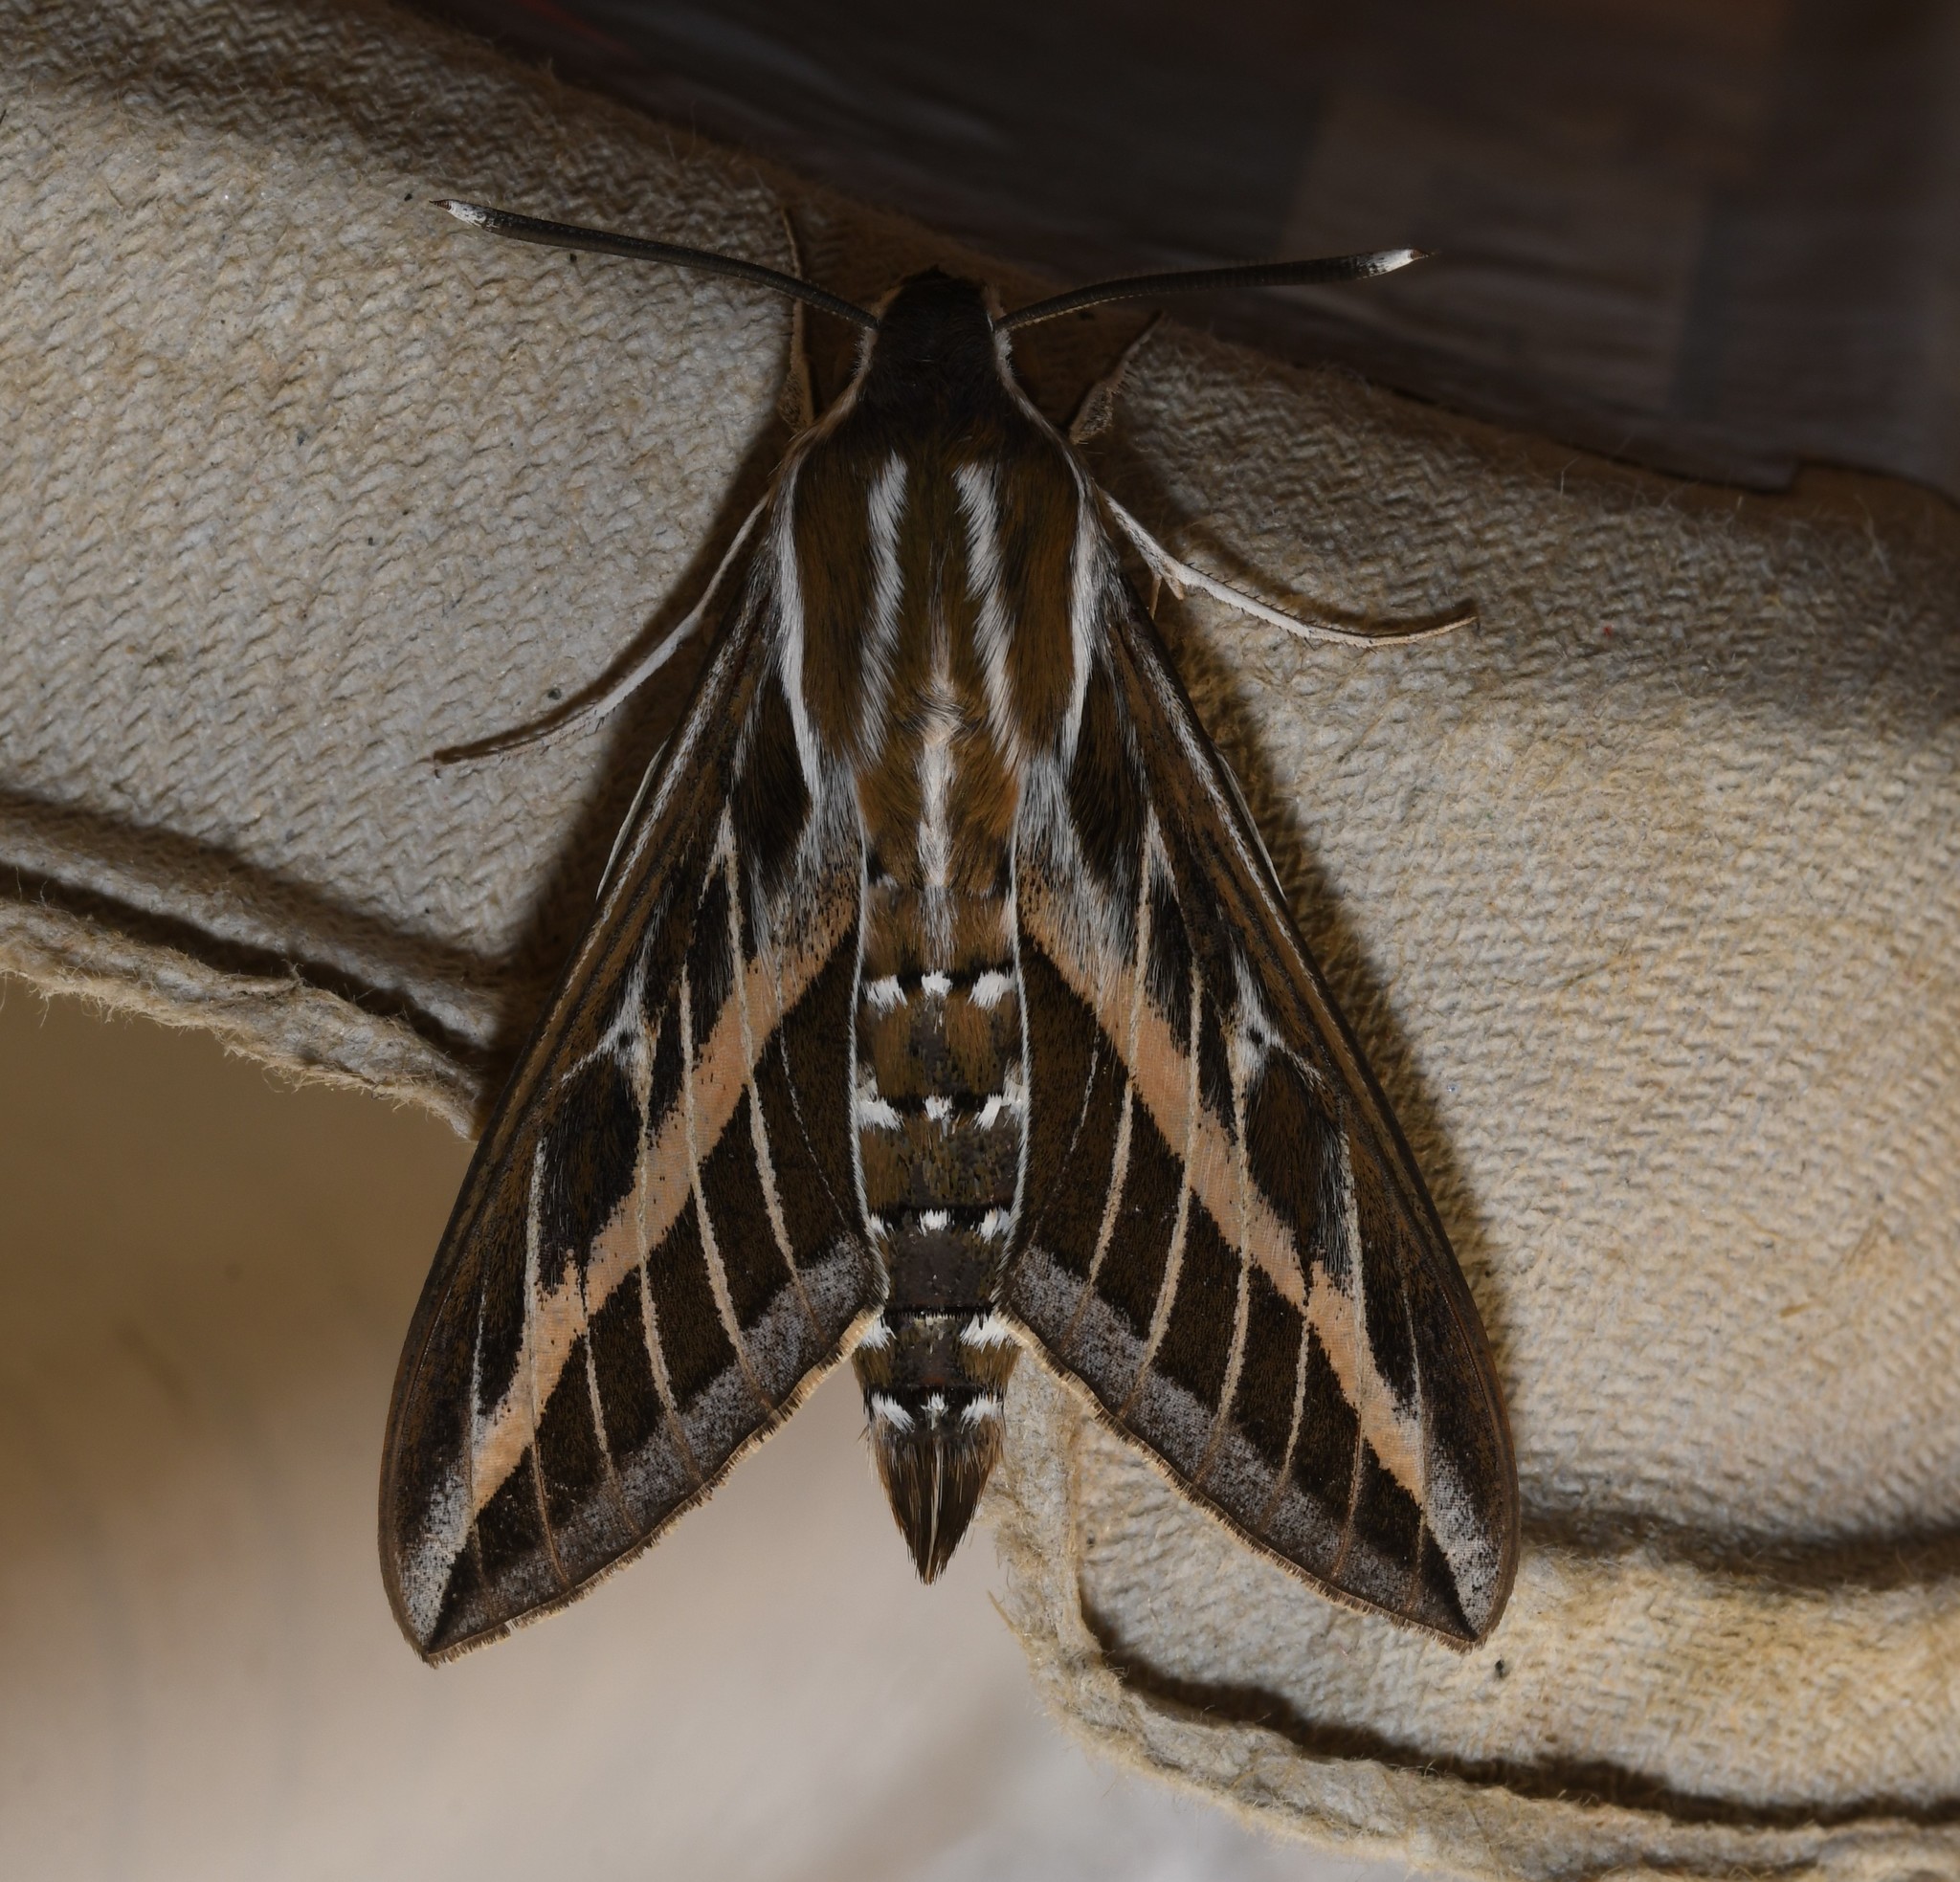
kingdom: Animalia
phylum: Arthropoda
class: Insecta
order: Lepidoptera
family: Sphingidae
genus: Hyles
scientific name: Hyles livornica
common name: Striped hawk-moth
